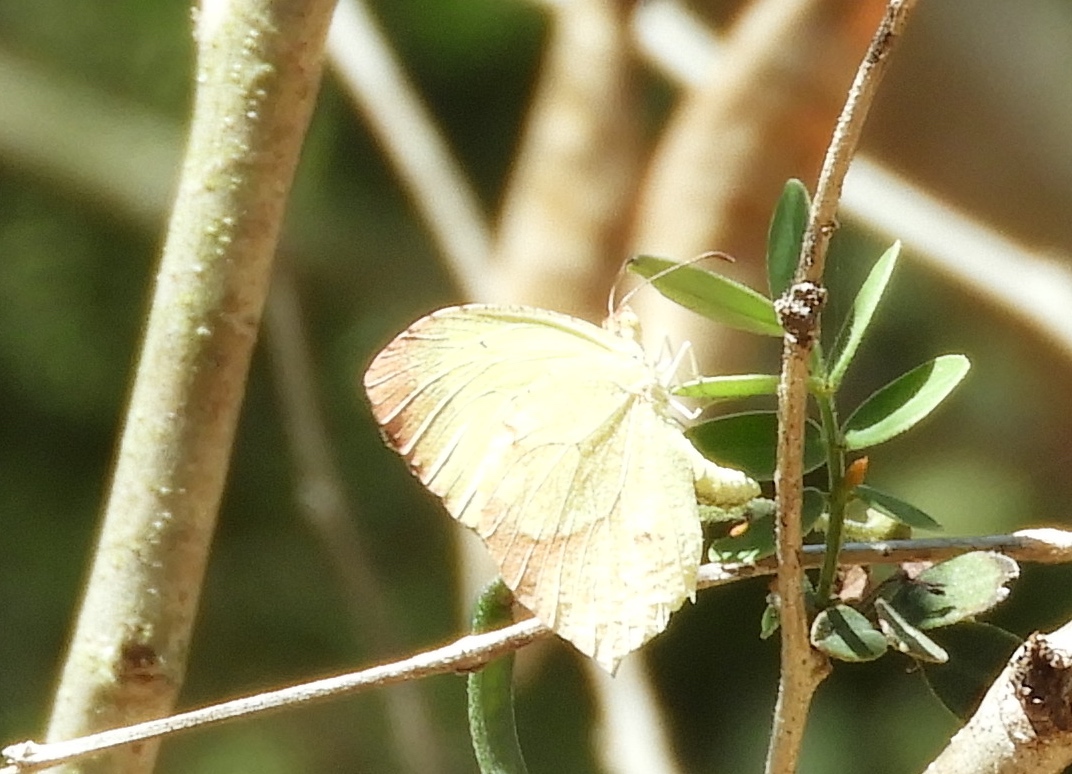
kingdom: Animalia
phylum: Arthropoda
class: Insecta
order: Lepidoptera
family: Pieridae
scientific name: Pieridae
